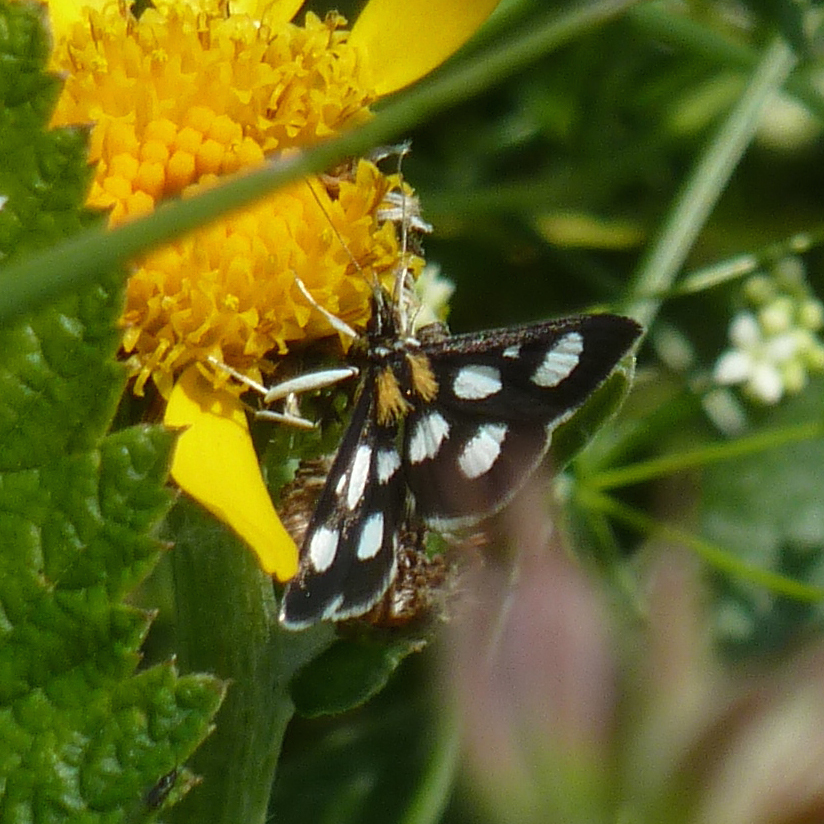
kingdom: Animalia
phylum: Arthropoda
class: Insecta
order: Lepidoptera
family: Crambidae
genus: Anania
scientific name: Anania funebris
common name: White-spotted sable moth
